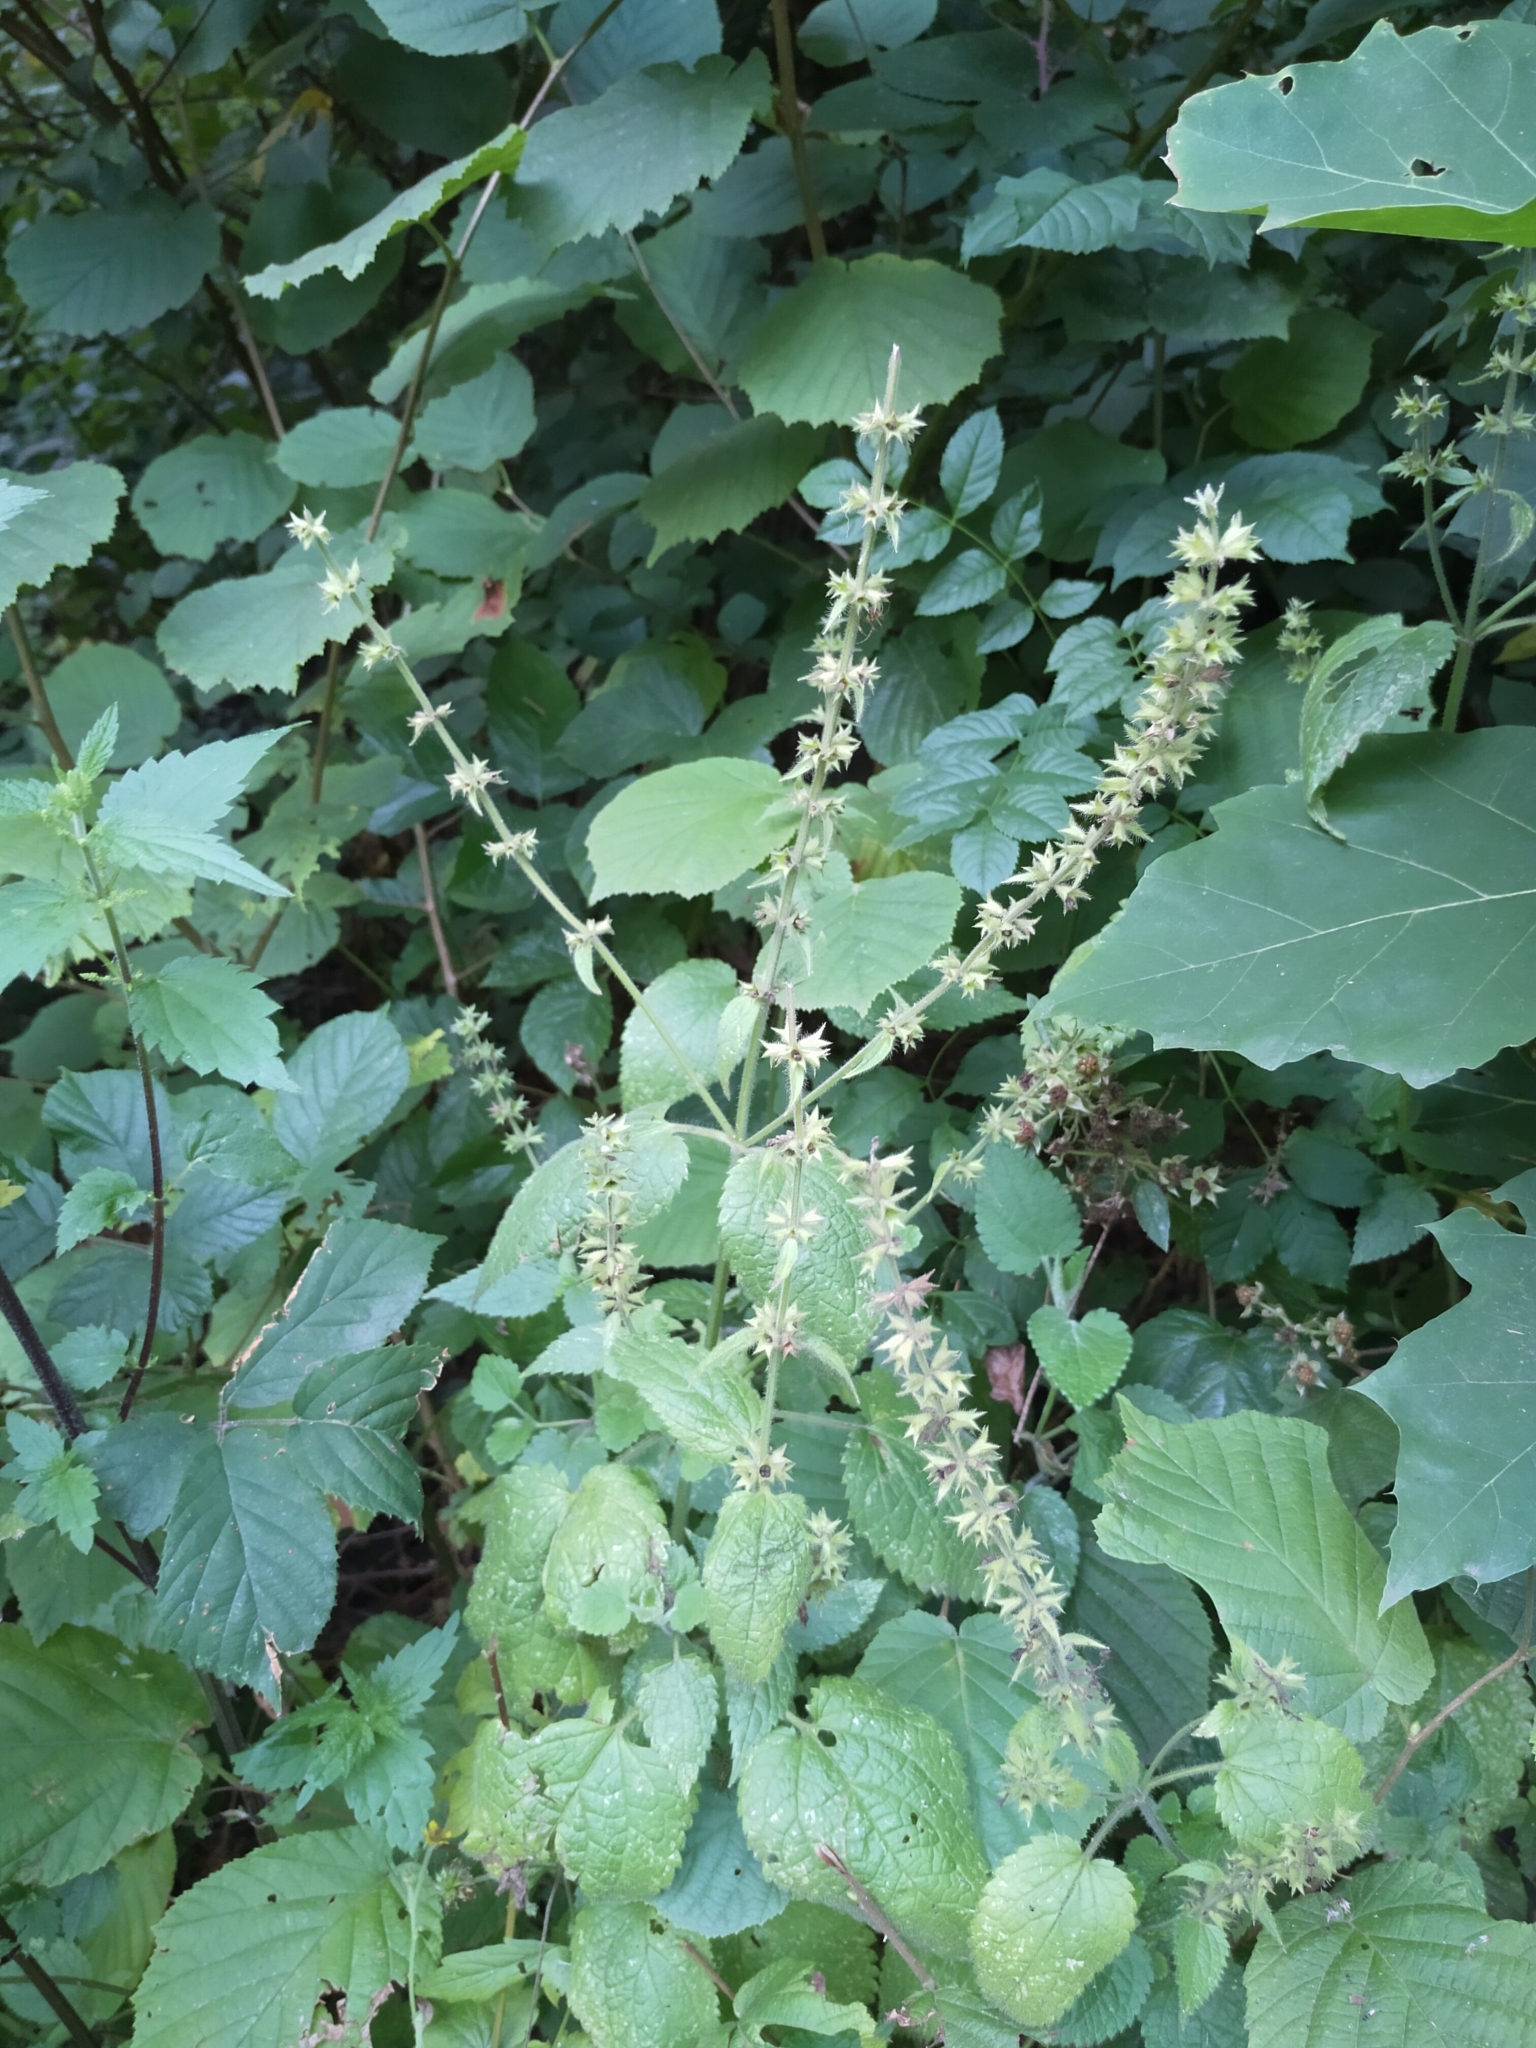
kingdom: Plantae
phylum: Tracheophyta
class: Magnoliopsida
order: Lamiales
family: Lamiaceae
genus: Stachys
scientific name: Stachys sylvatica
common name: Hedge woundwort
